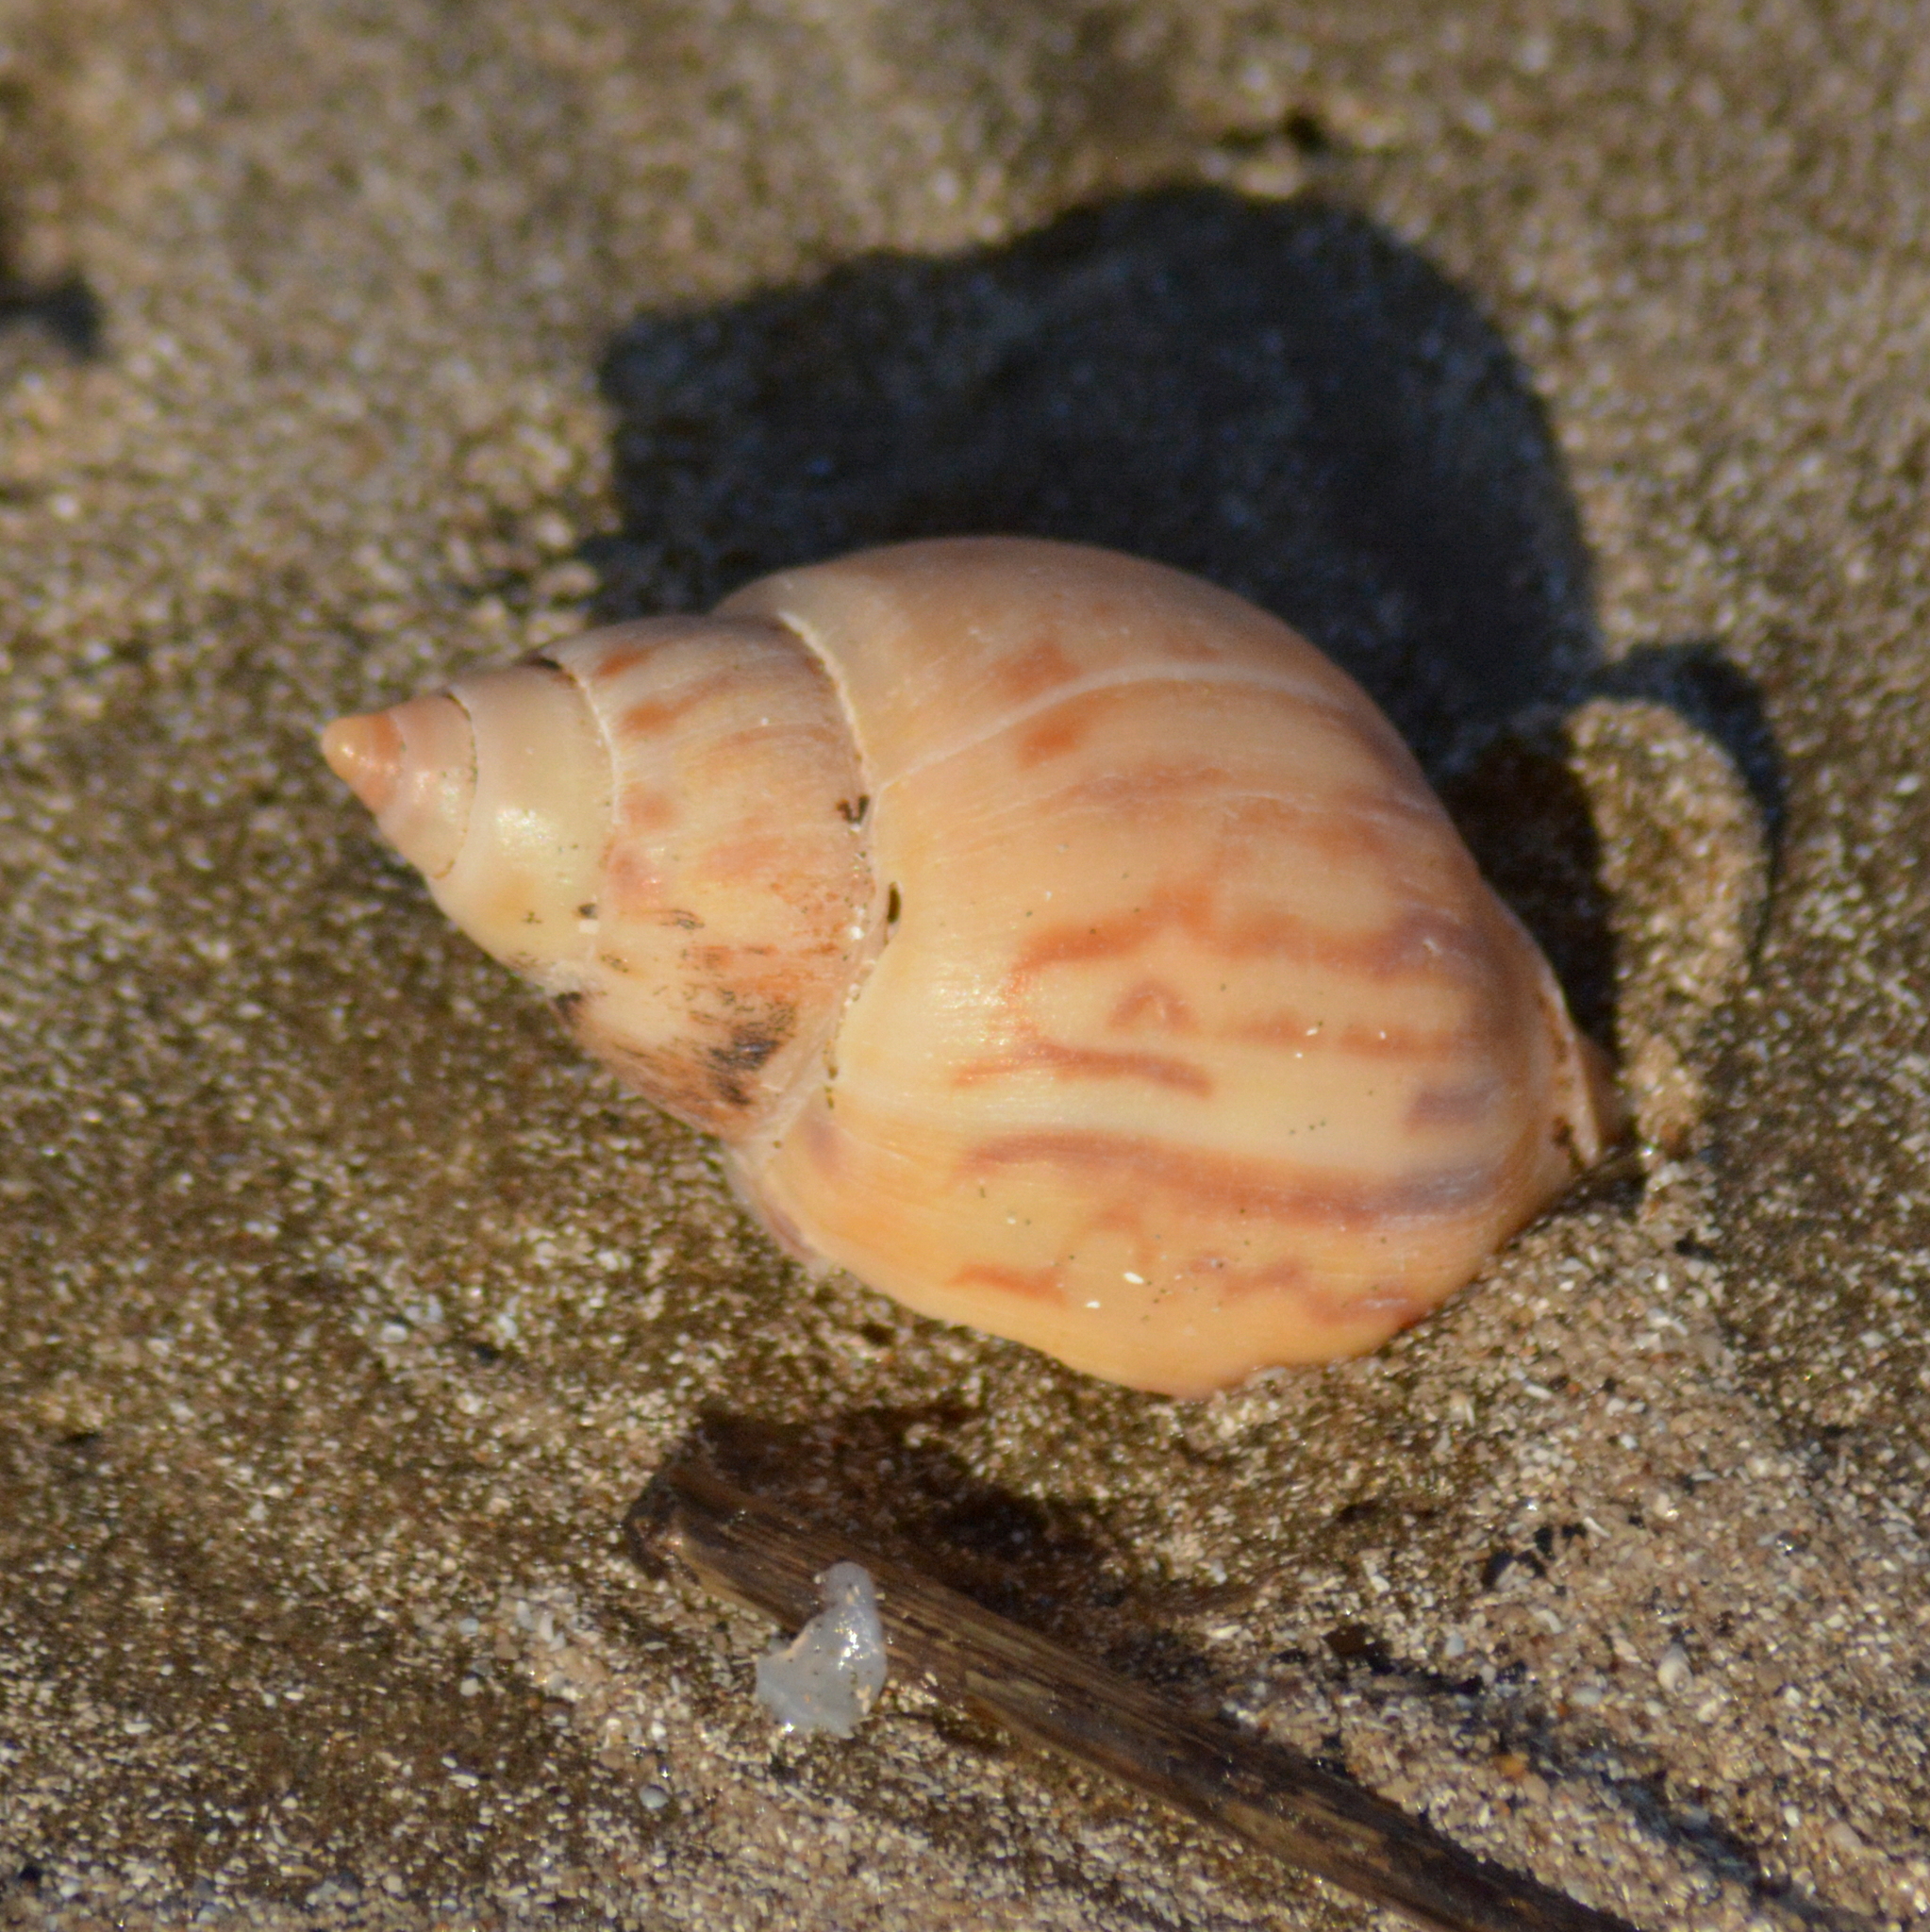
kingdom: Animalia
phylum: Mollusca
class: Gastropoda
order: Neogastropoda
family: Buccinanopsidae
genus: Buccinanops
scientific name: Buccinanops cochlidium
